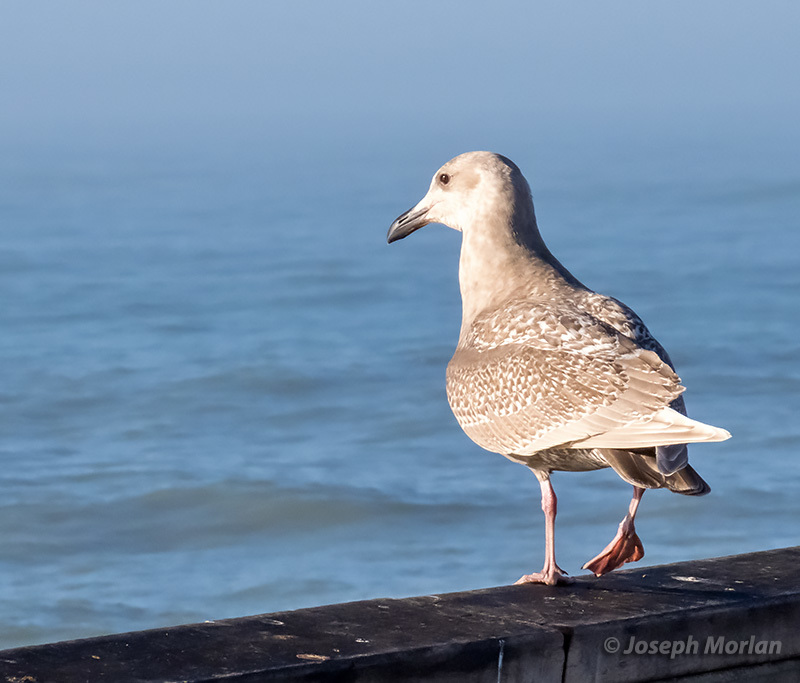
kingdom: Animalia
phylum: Chordata
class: Aves
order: Charadriiformes
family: Laridae
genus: Larus
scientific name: Larus glaucescens
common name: Glaucous-winged gull
